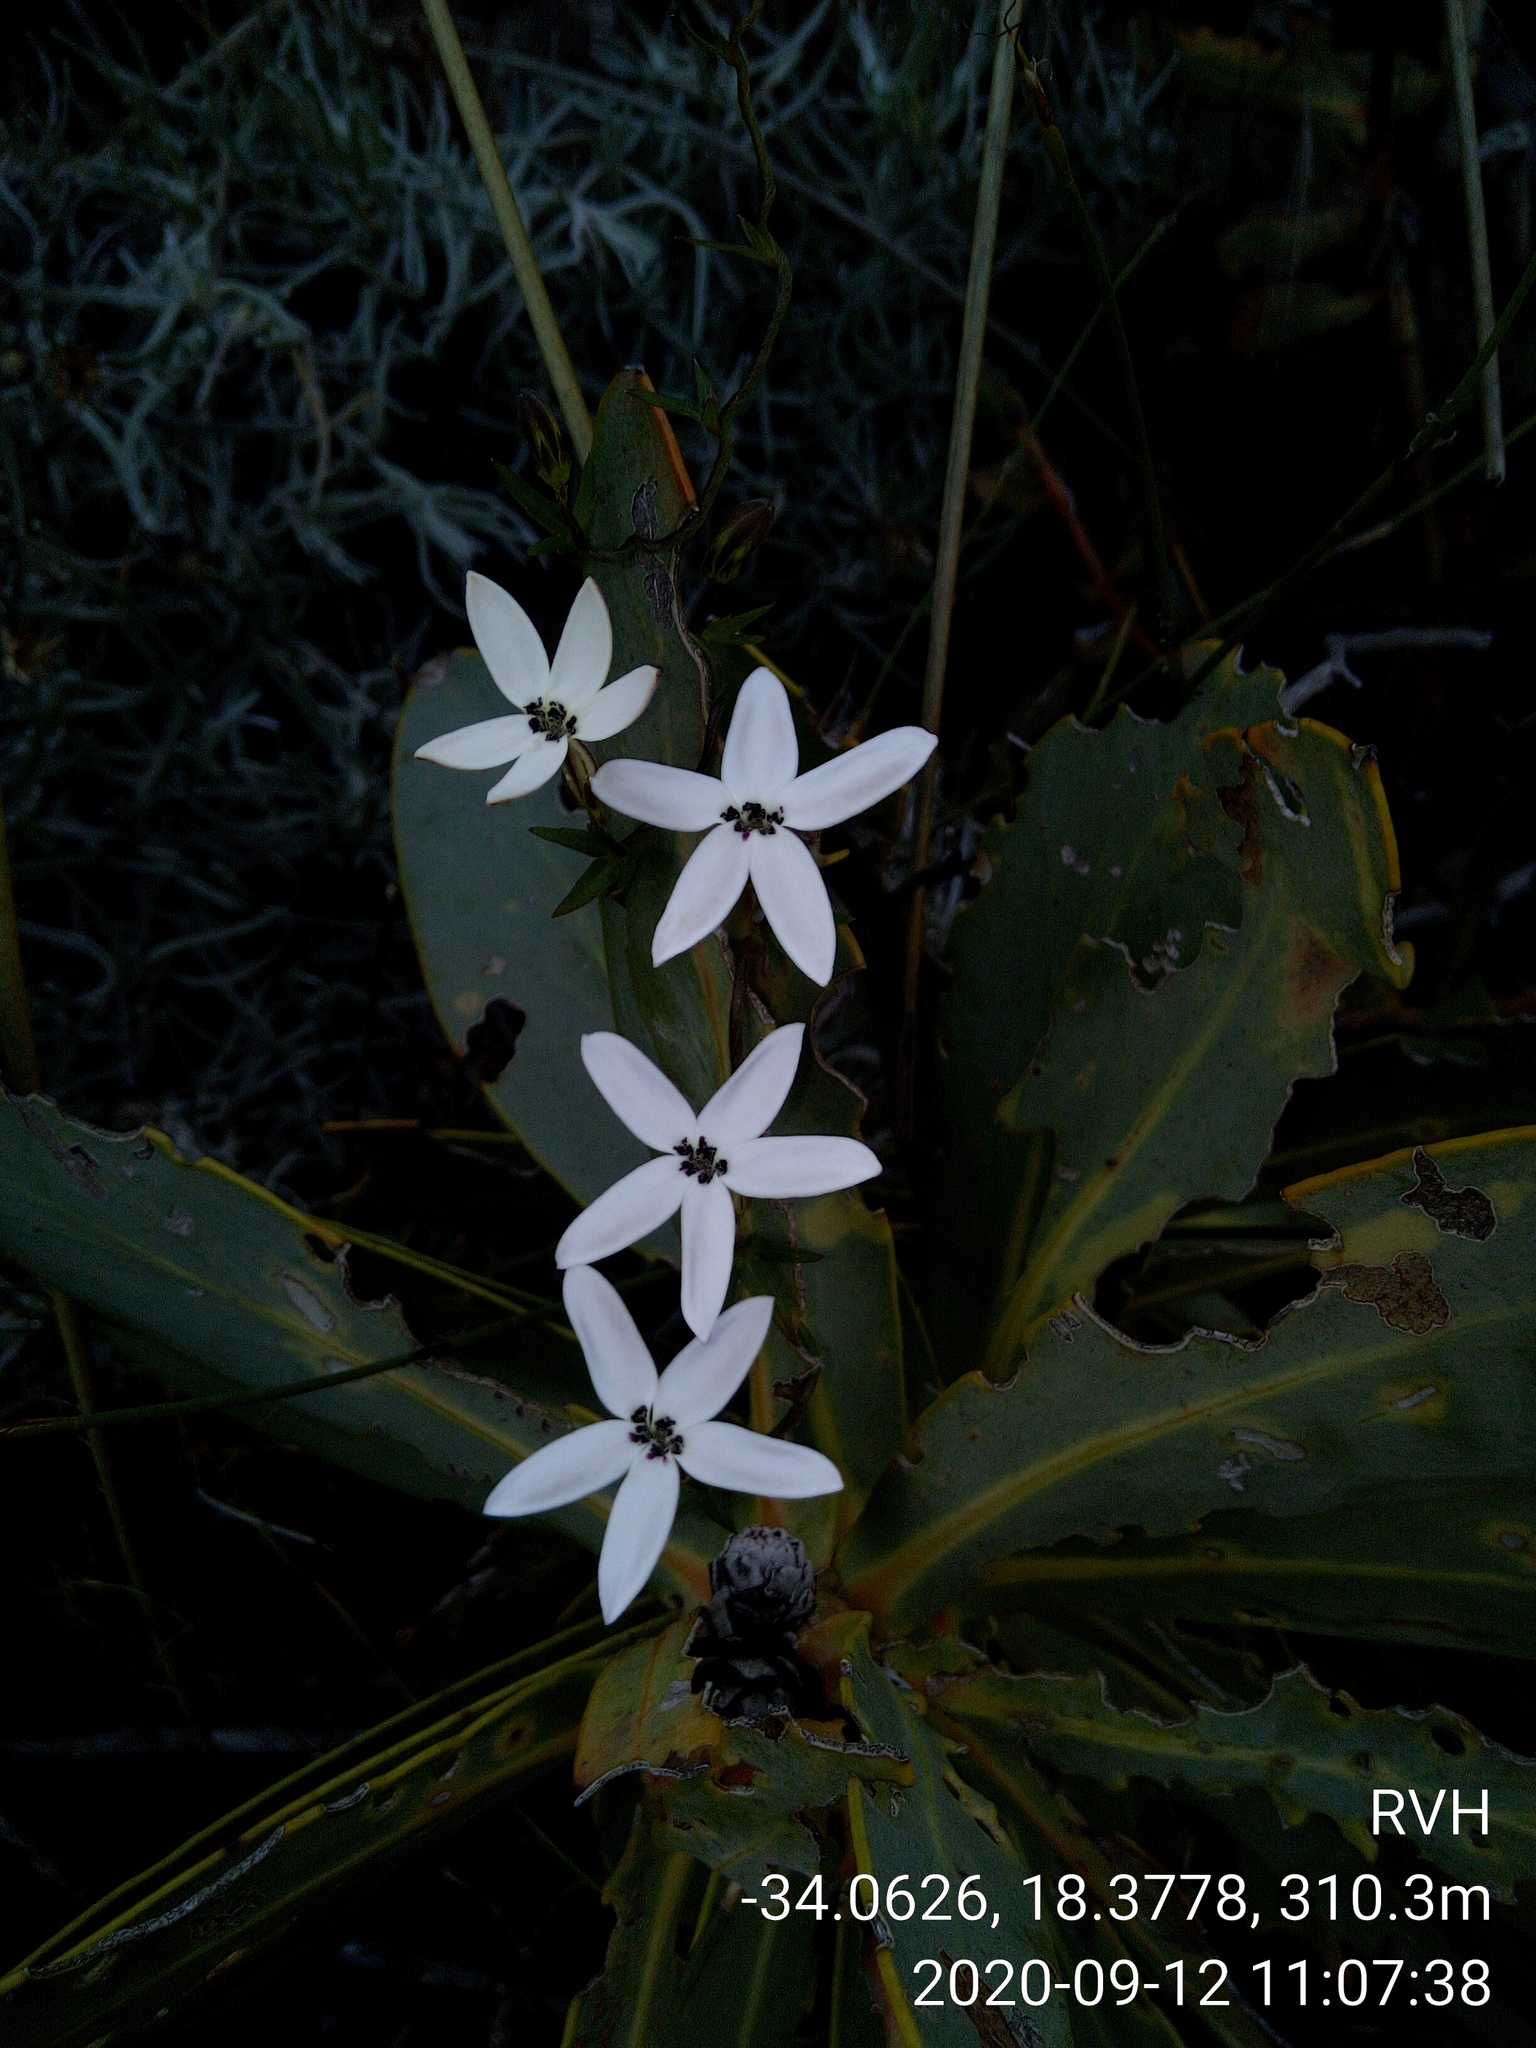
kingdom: Plantae
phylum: Tracheophyta
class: Magnoliopsida
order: Asterales
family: Campanulaceae
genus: Cyphia
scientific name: Cyphia volubilis
